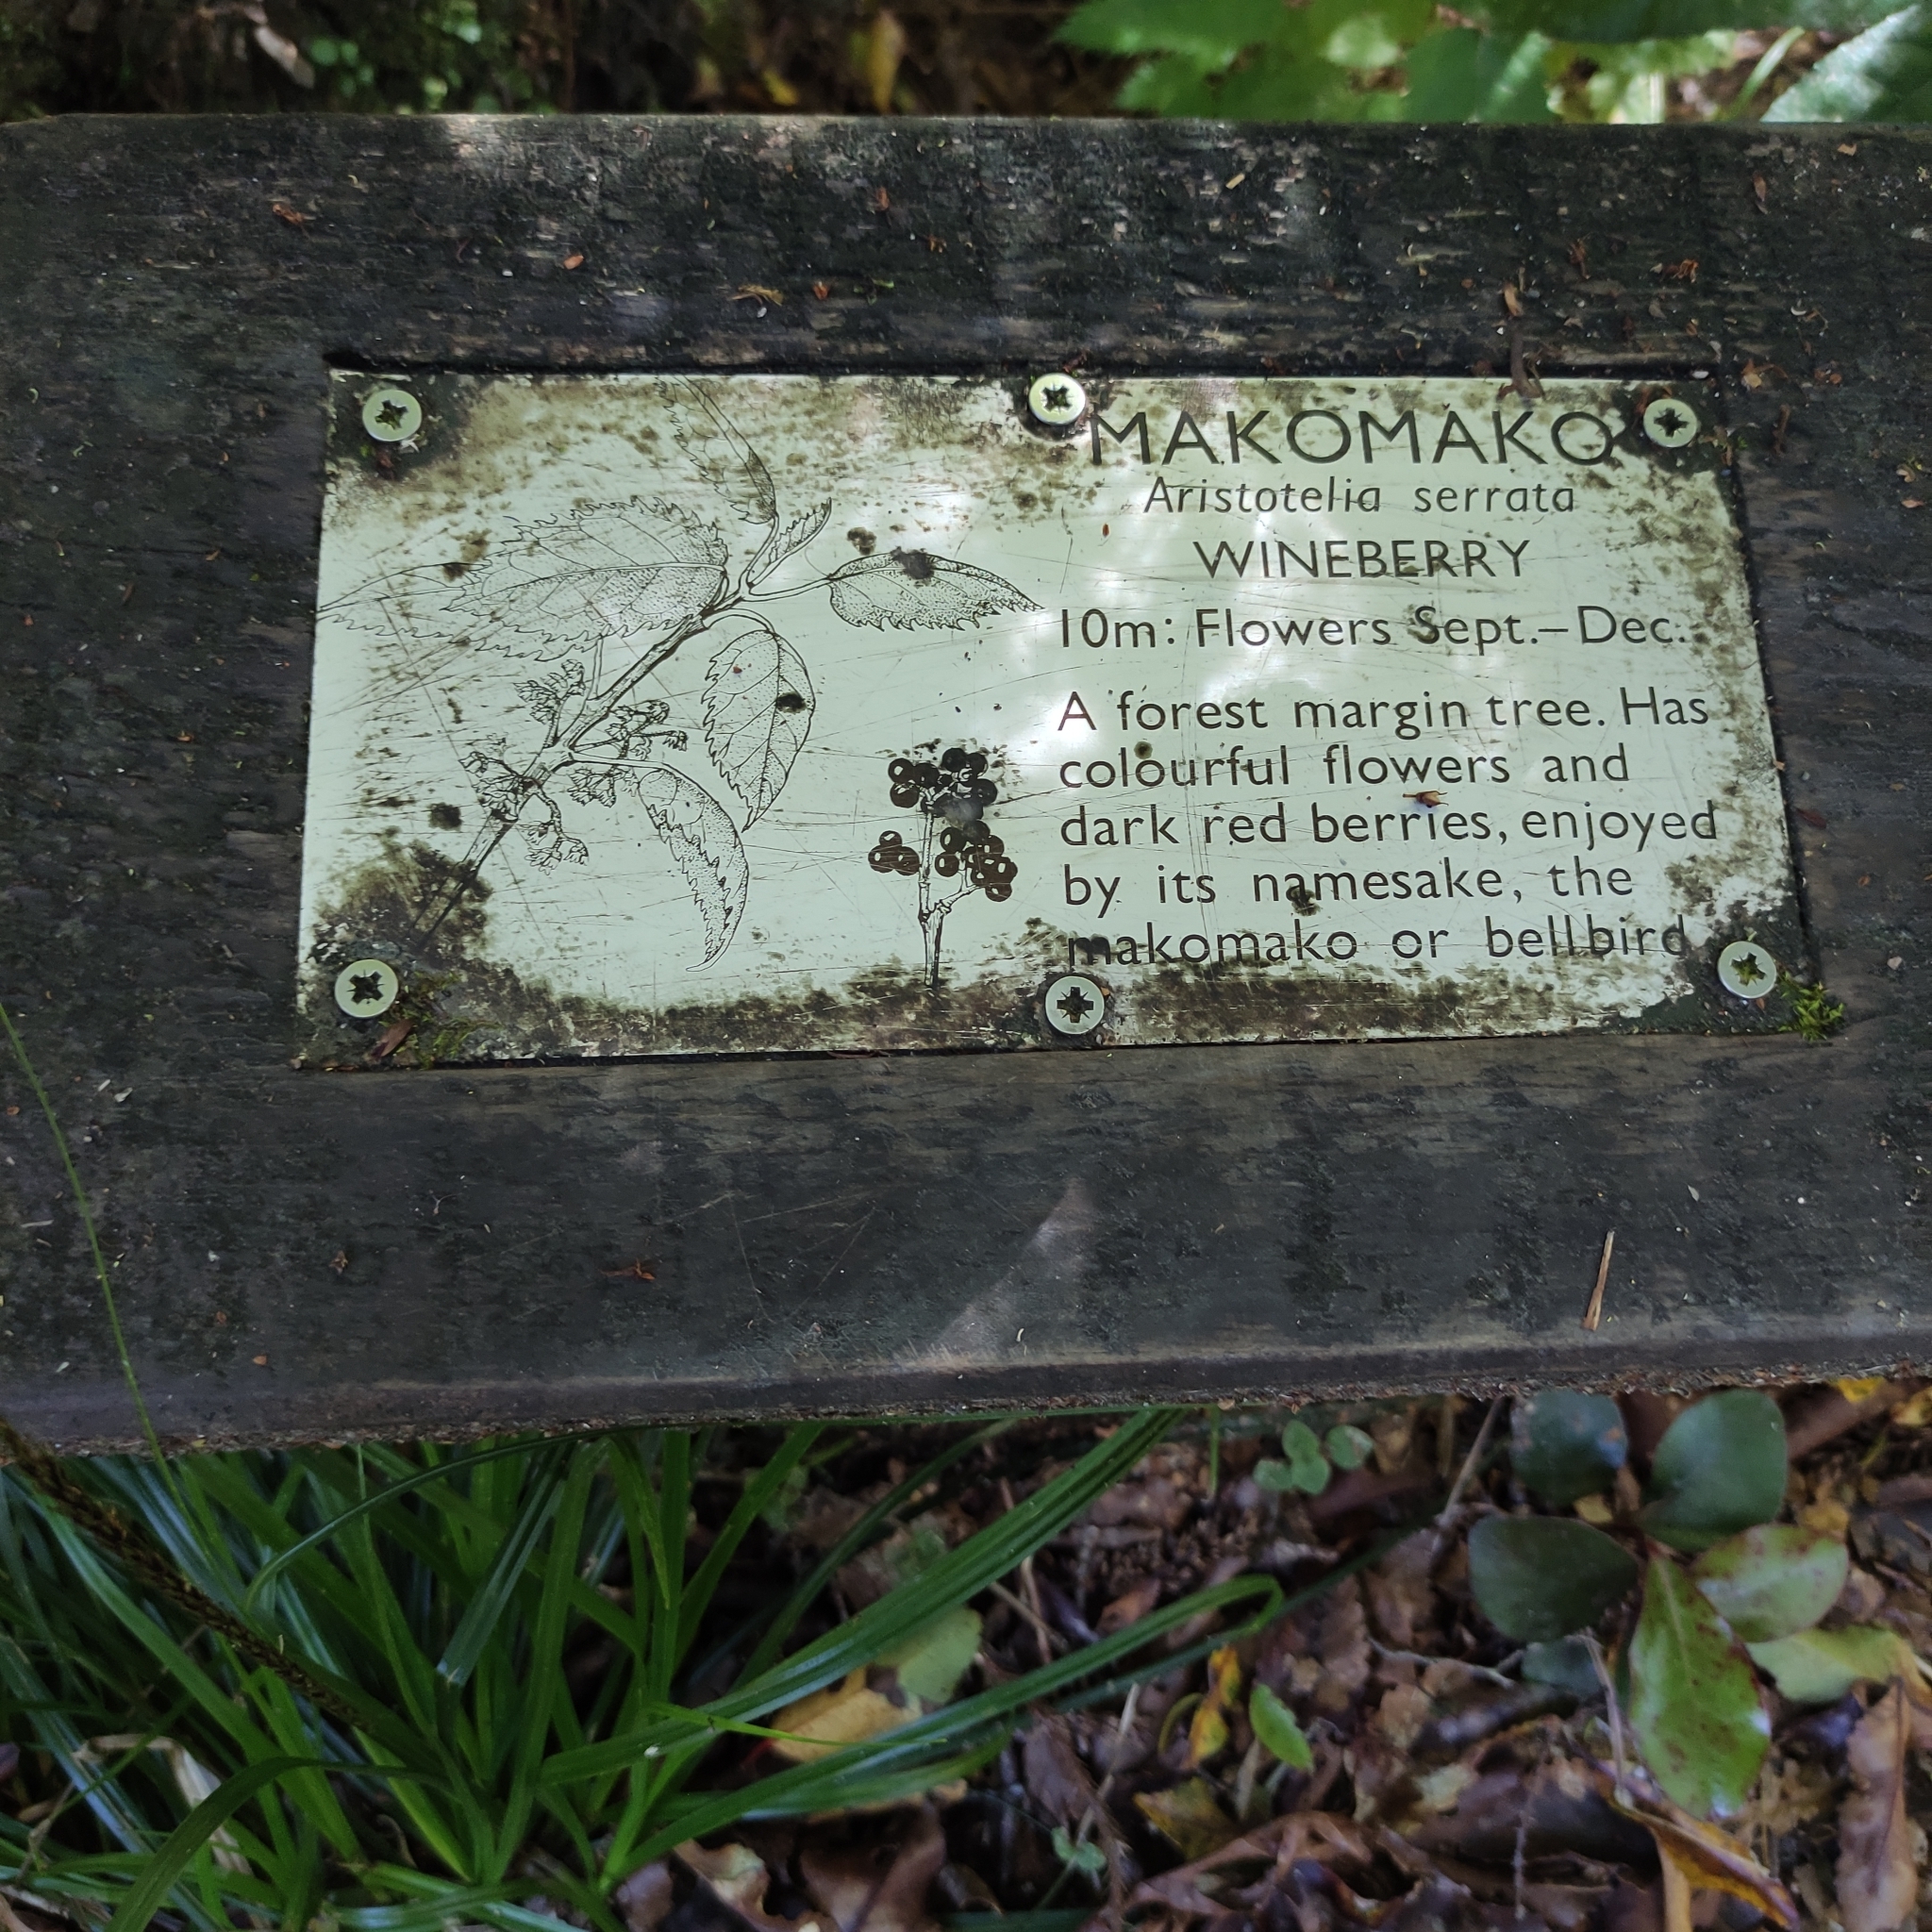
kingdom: Plantae
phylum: Tracheophyta
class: Magnoliopsida
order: Oxalidales
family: Elaeocarpaceae
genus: Aristotelia
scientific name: Aristotelia serrata
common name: New zealand wineberry
